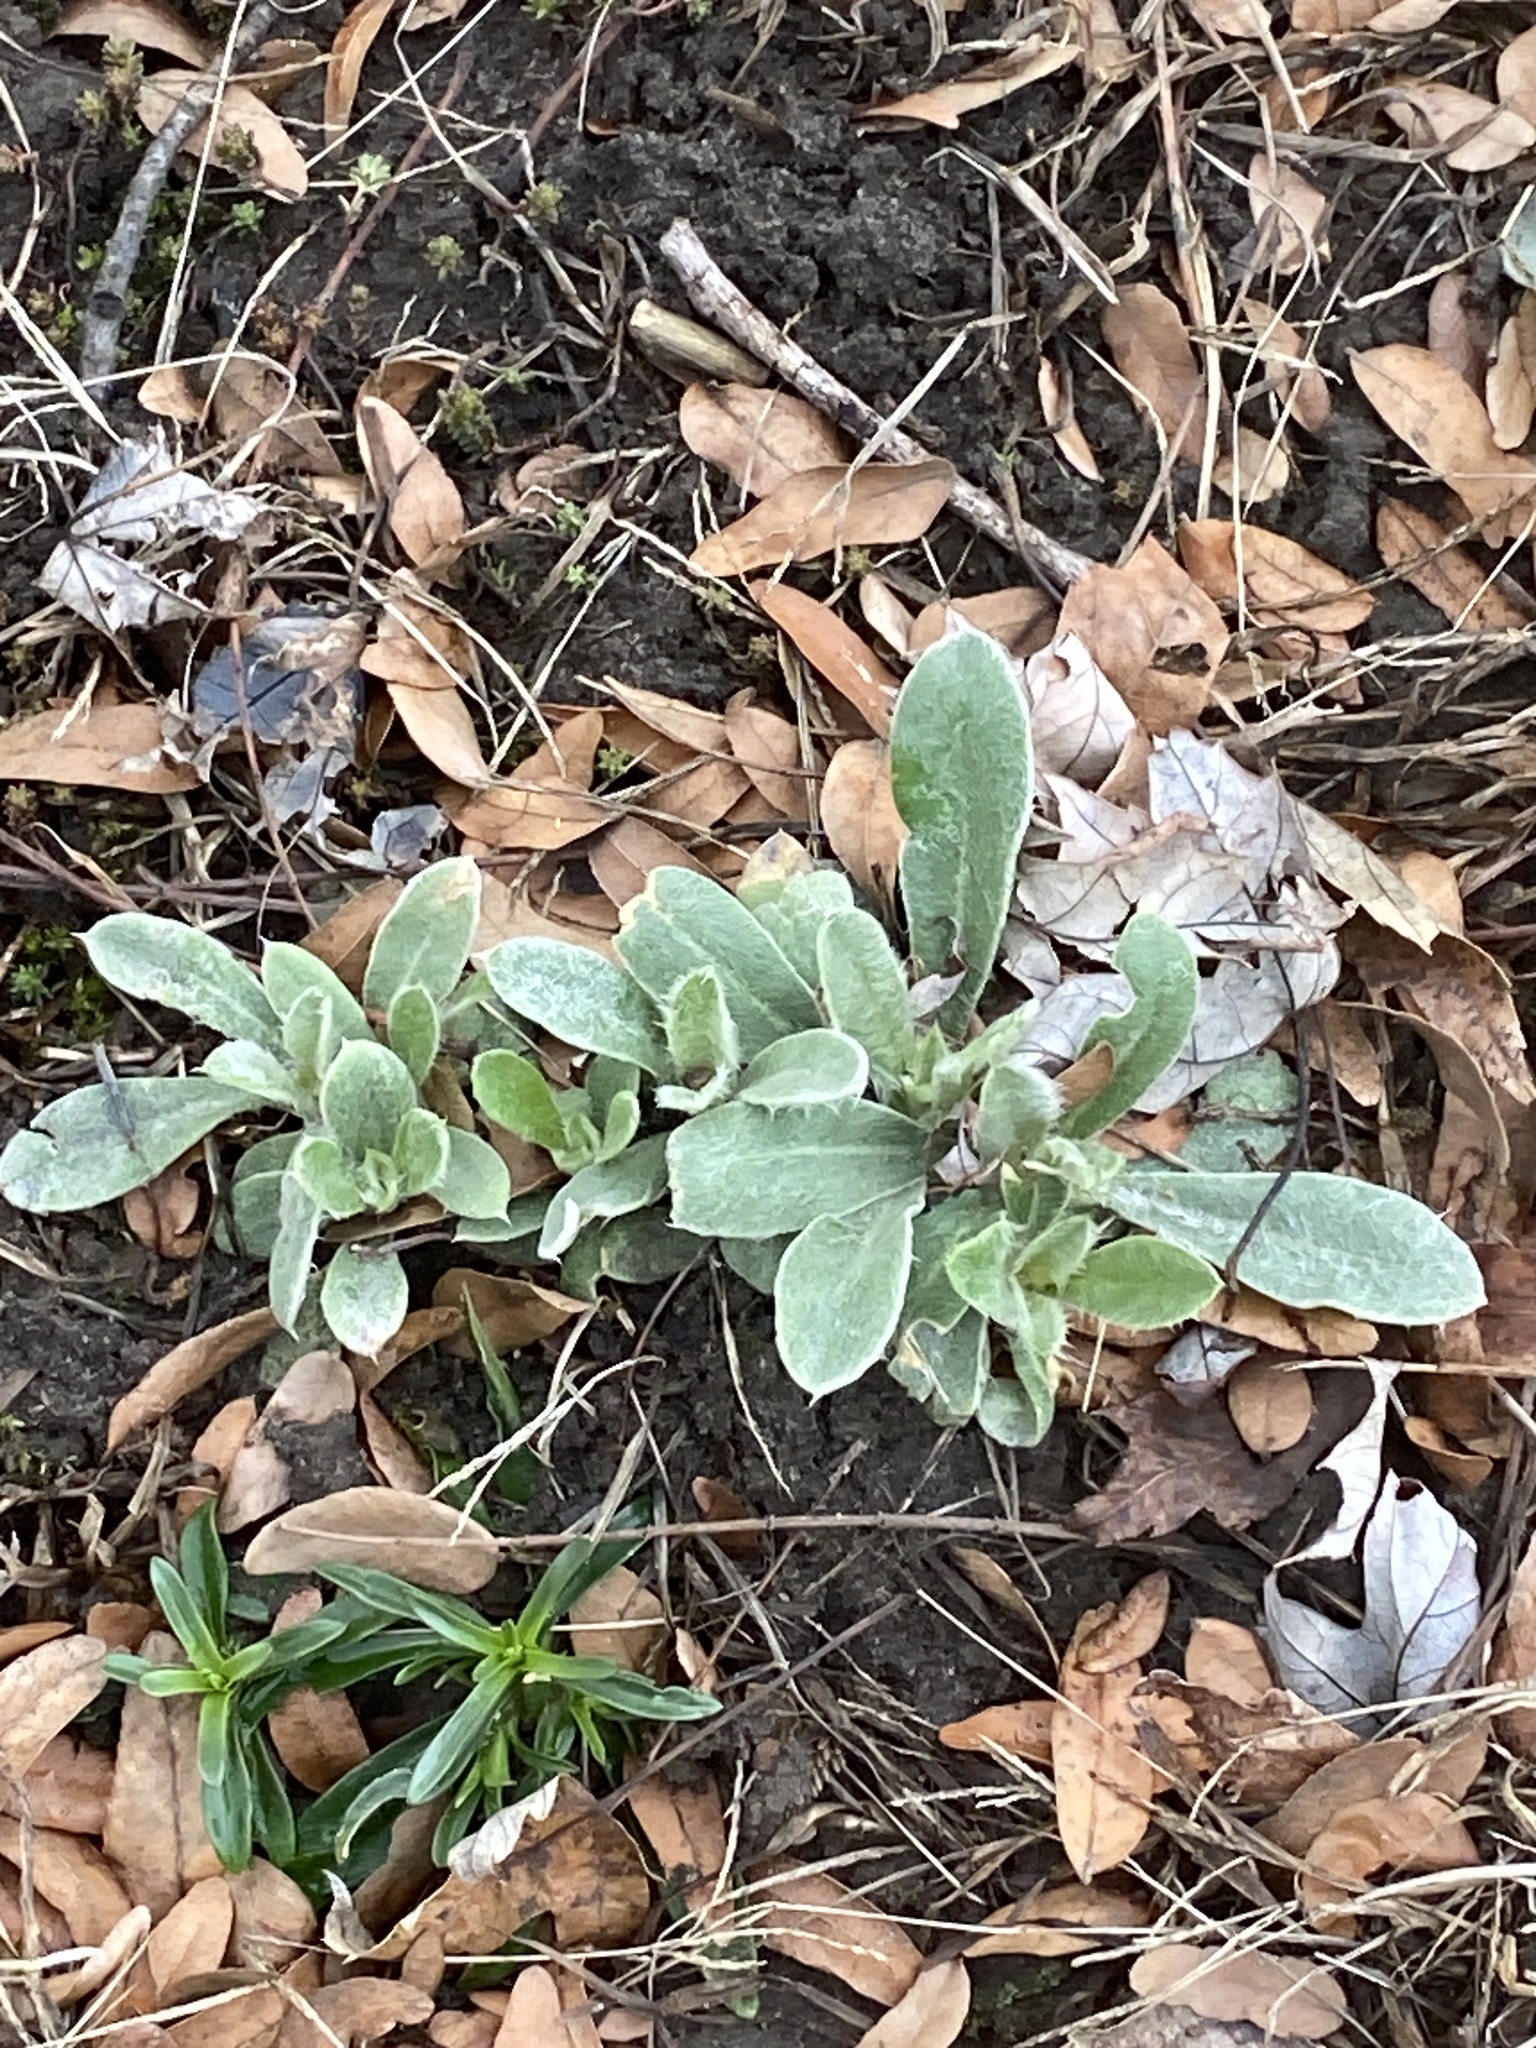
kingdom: Plantae
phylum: Tracheophyta
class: Magnoliopsida
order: Caryophyllales
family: Caryophyllaceae
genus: Silene
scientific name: Silene coronaria
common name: Rose campion
